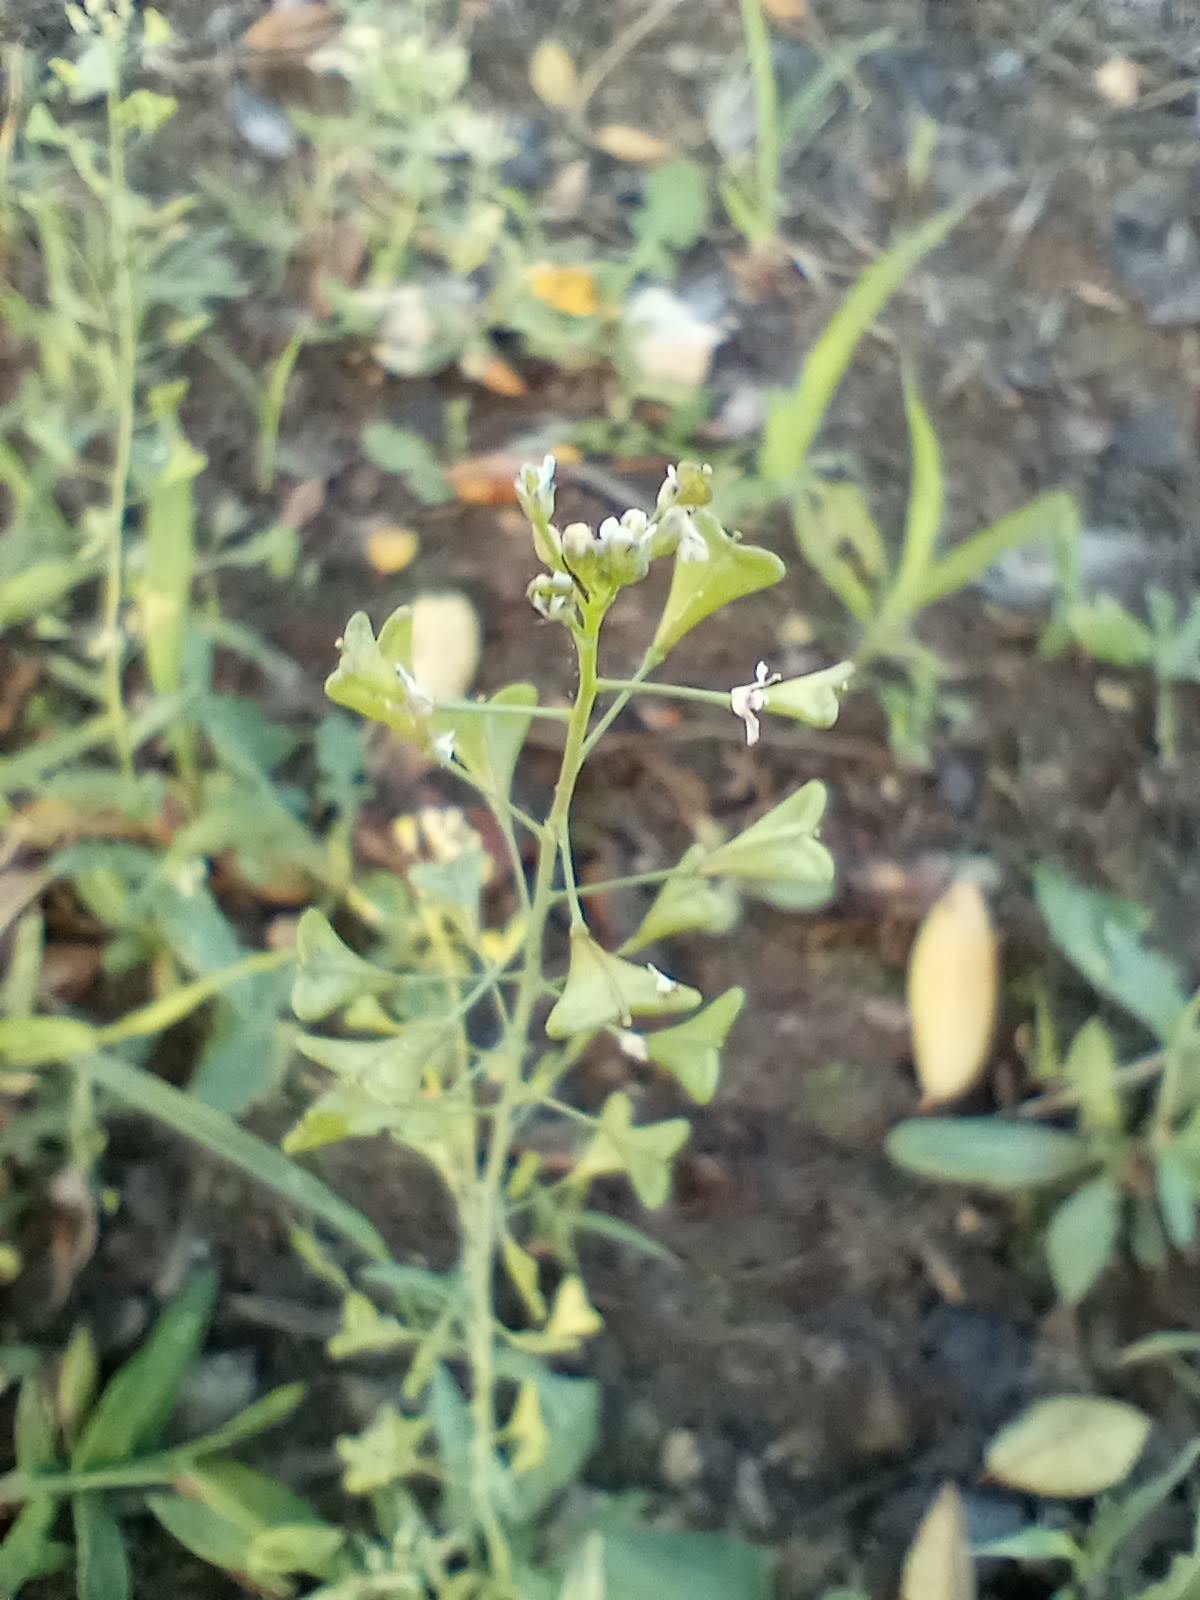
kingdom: Plantae
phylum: Tracheophyta
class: Magnoliopsida
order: Brassicales
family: Brassicaceae
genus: Capsella
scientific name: Capsella bursa-pastoris
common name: Shepherd's purse
